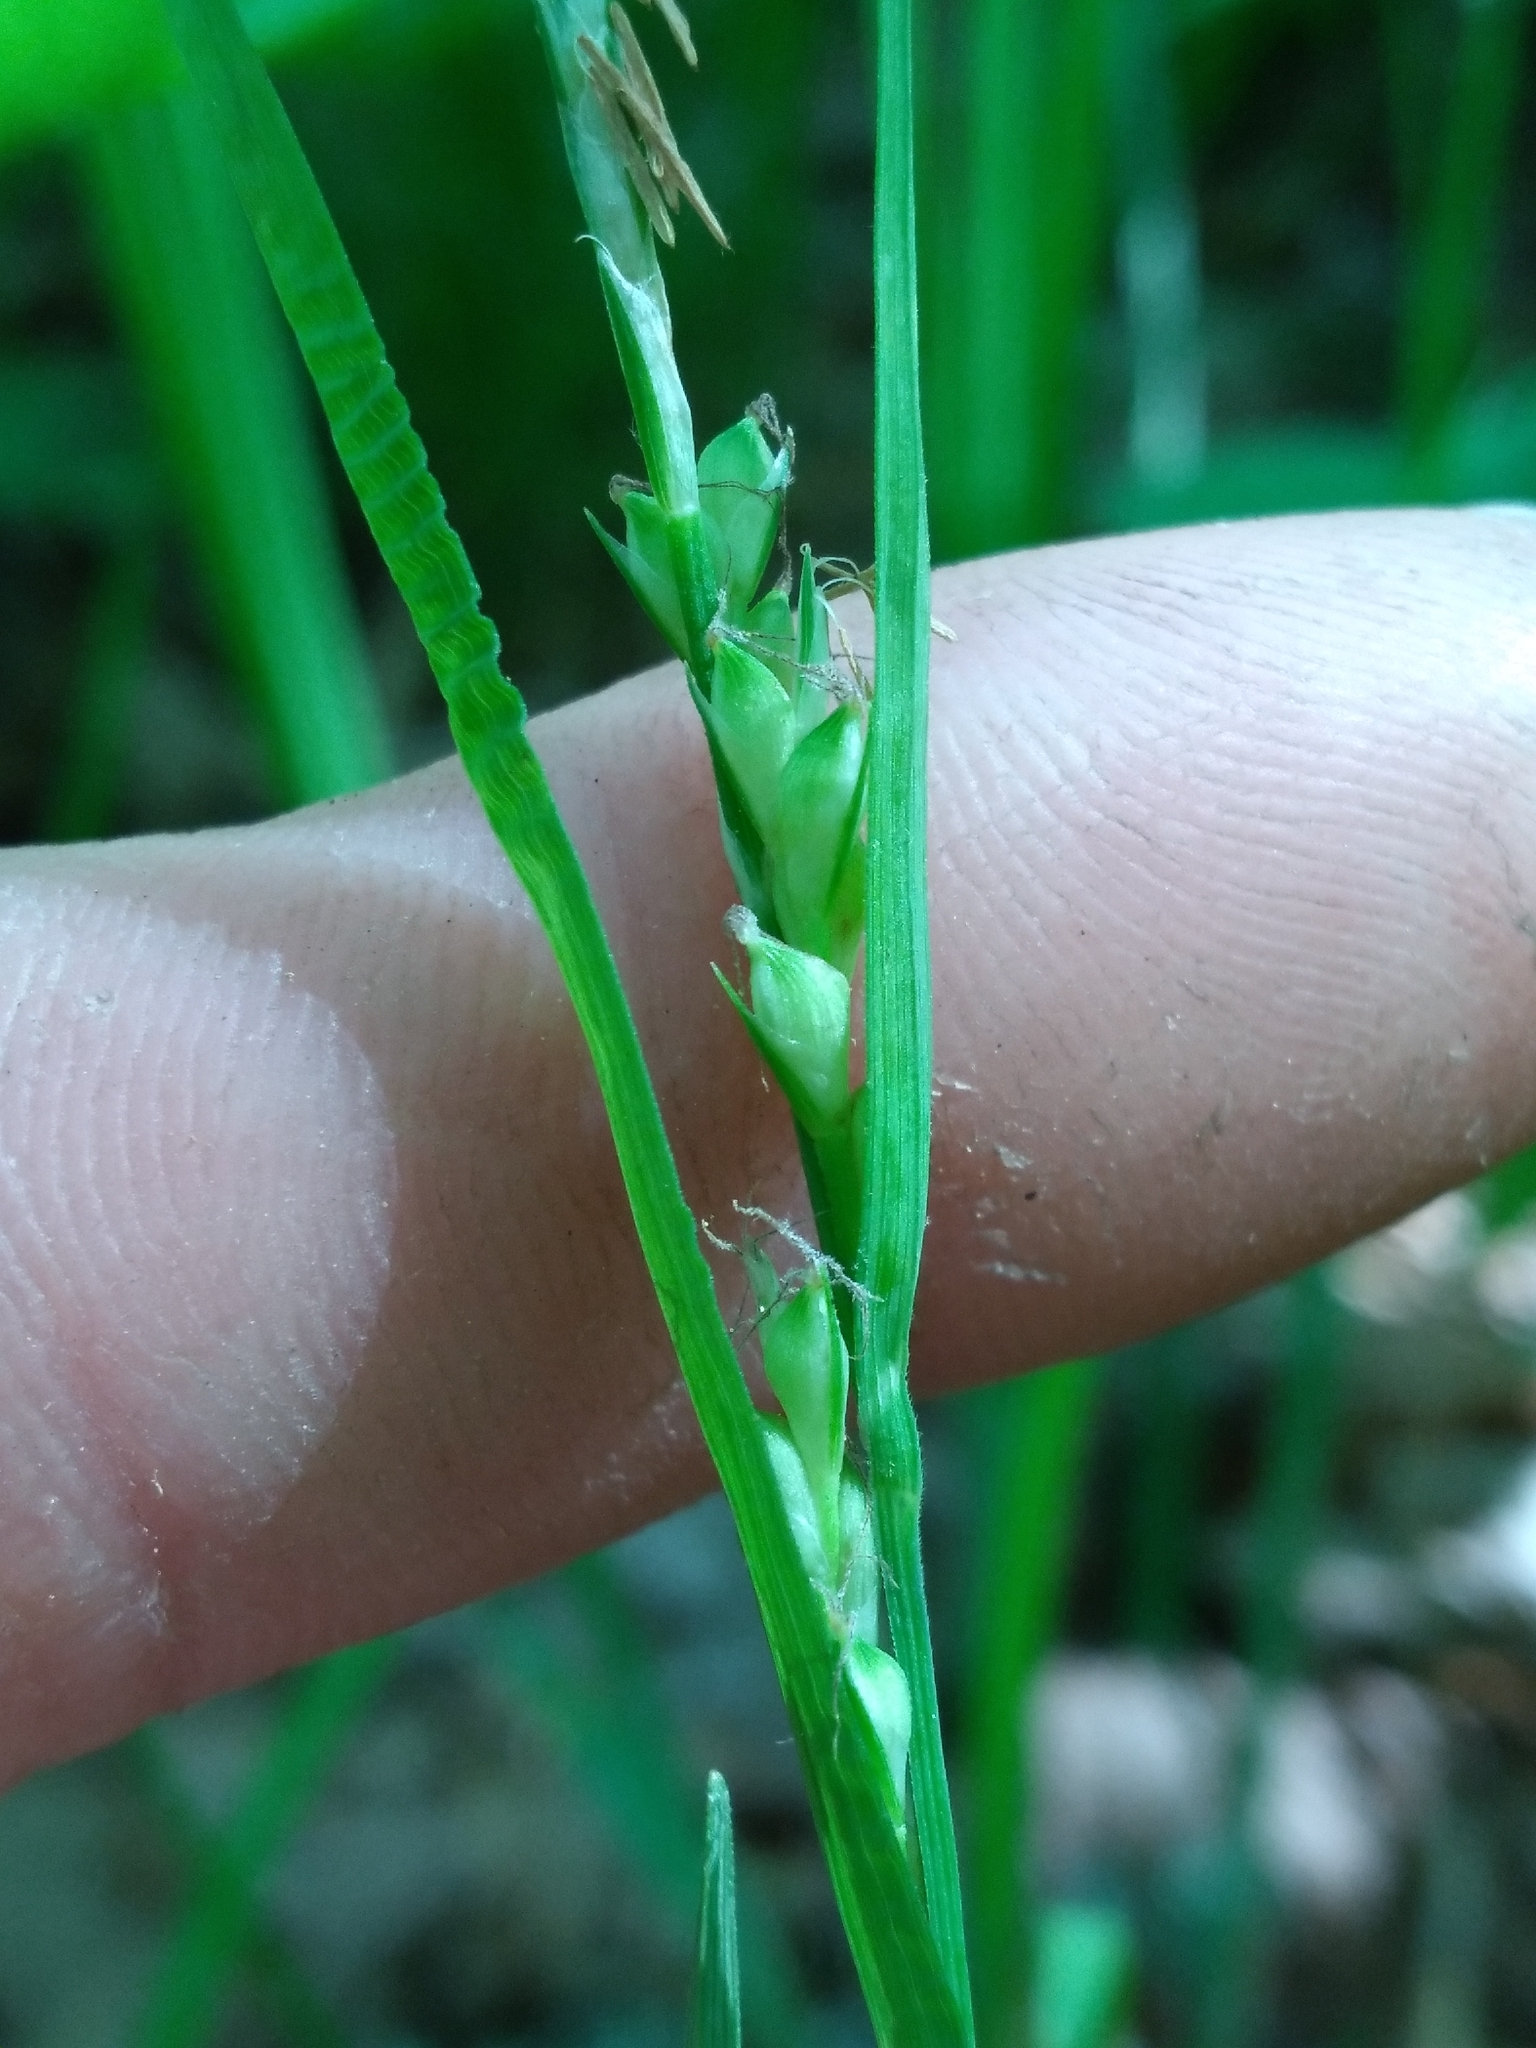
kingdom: Plantae
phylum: Tracheophyta
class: Liliopsida
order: Poales
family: Cyperaceae
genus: Carex
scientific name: Carex brysonii
